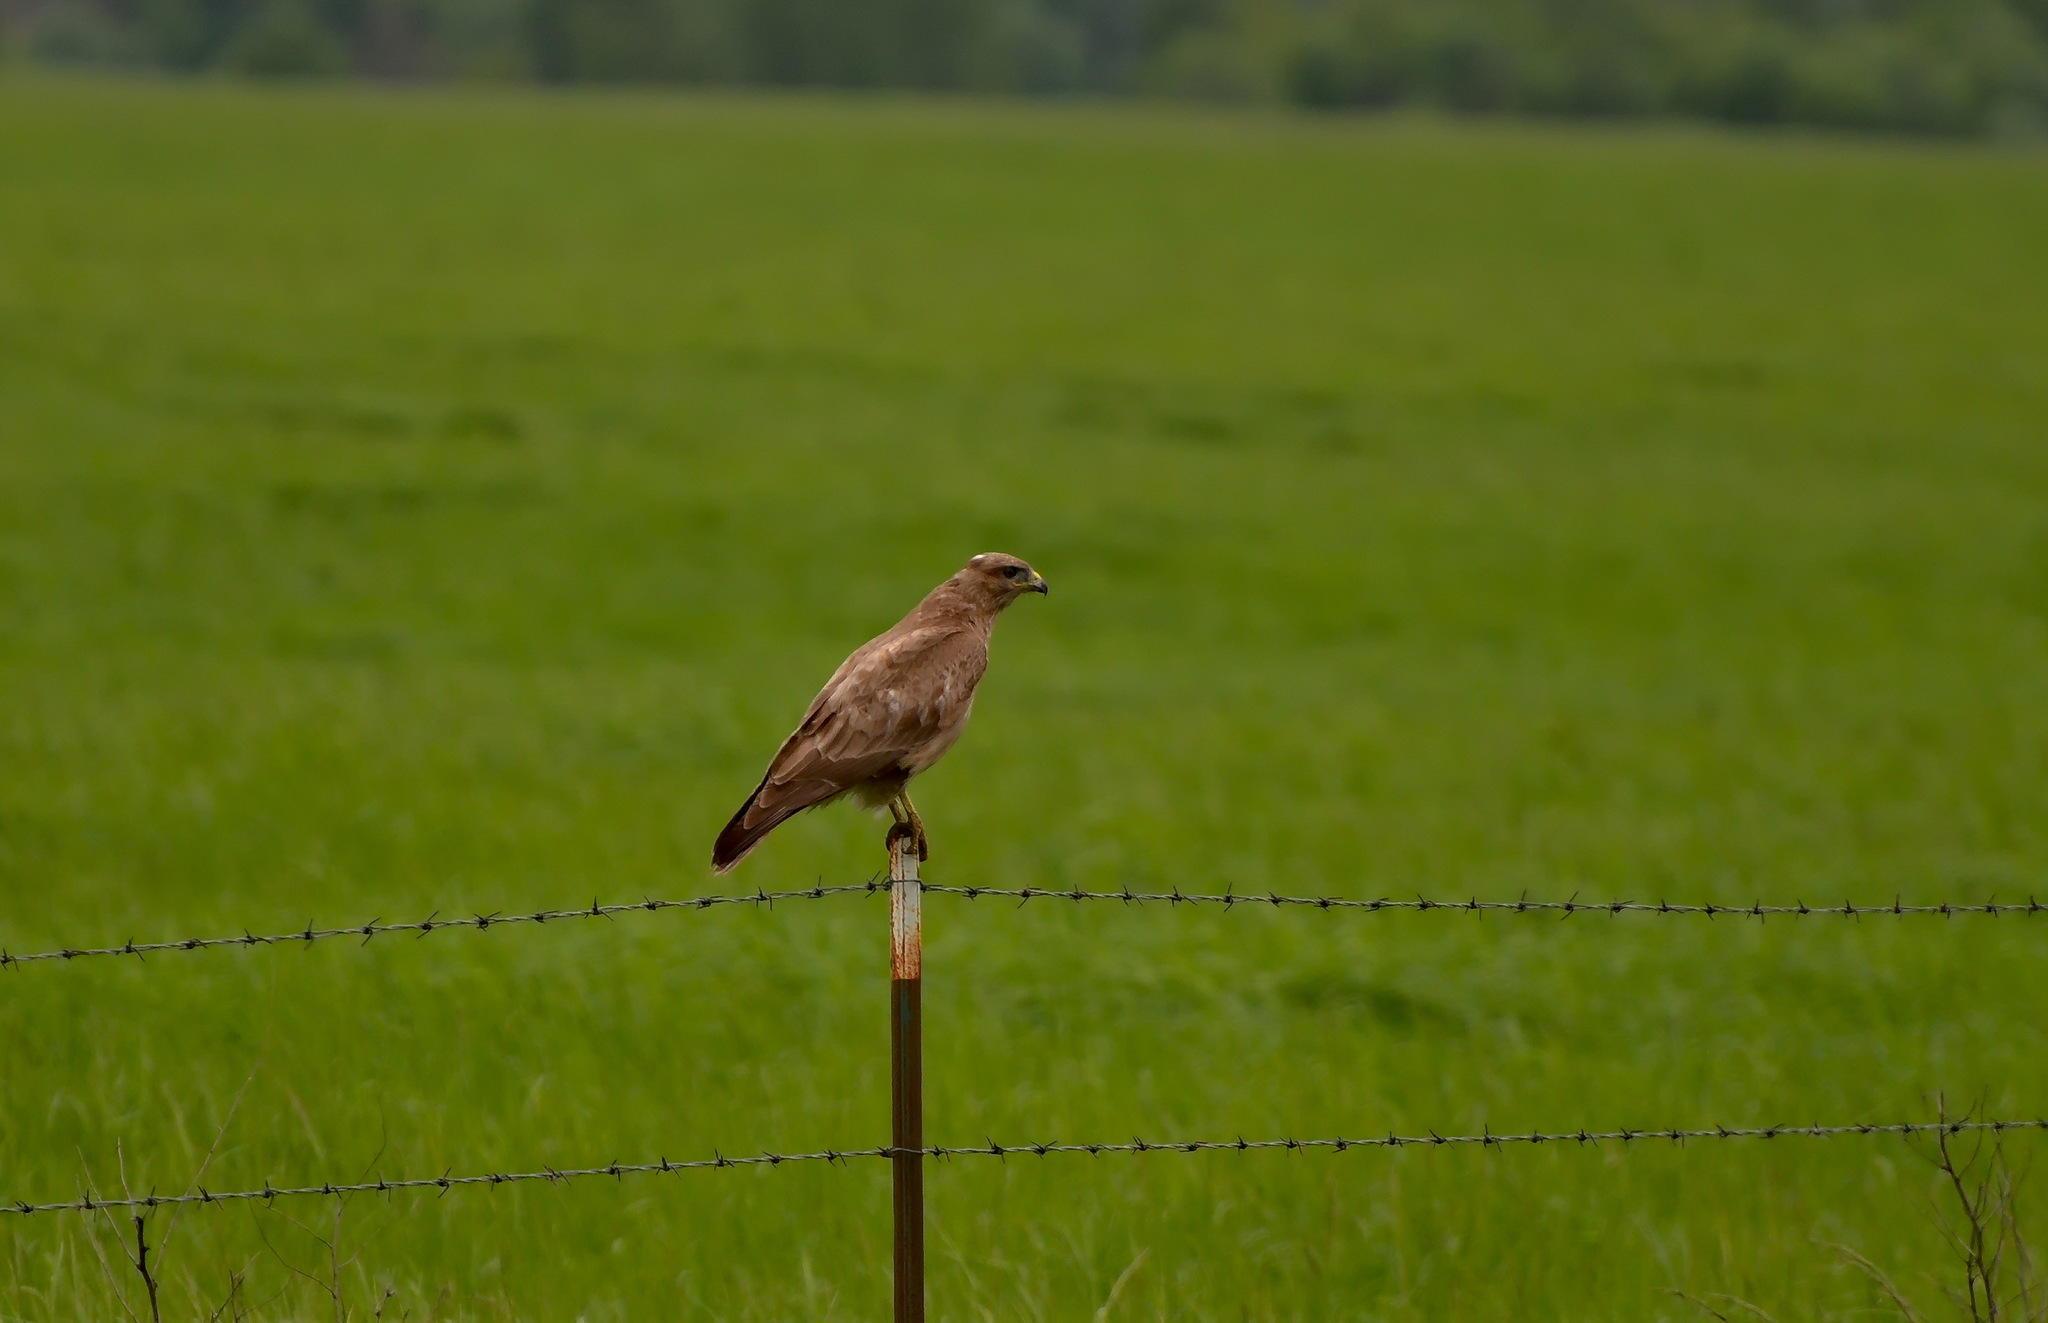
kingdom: Animalia
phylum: Chordata
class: Aves
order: Accipitriformes
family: Accipitridae
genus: Buteo
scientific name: Buteo buteo
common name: Common buzzard
